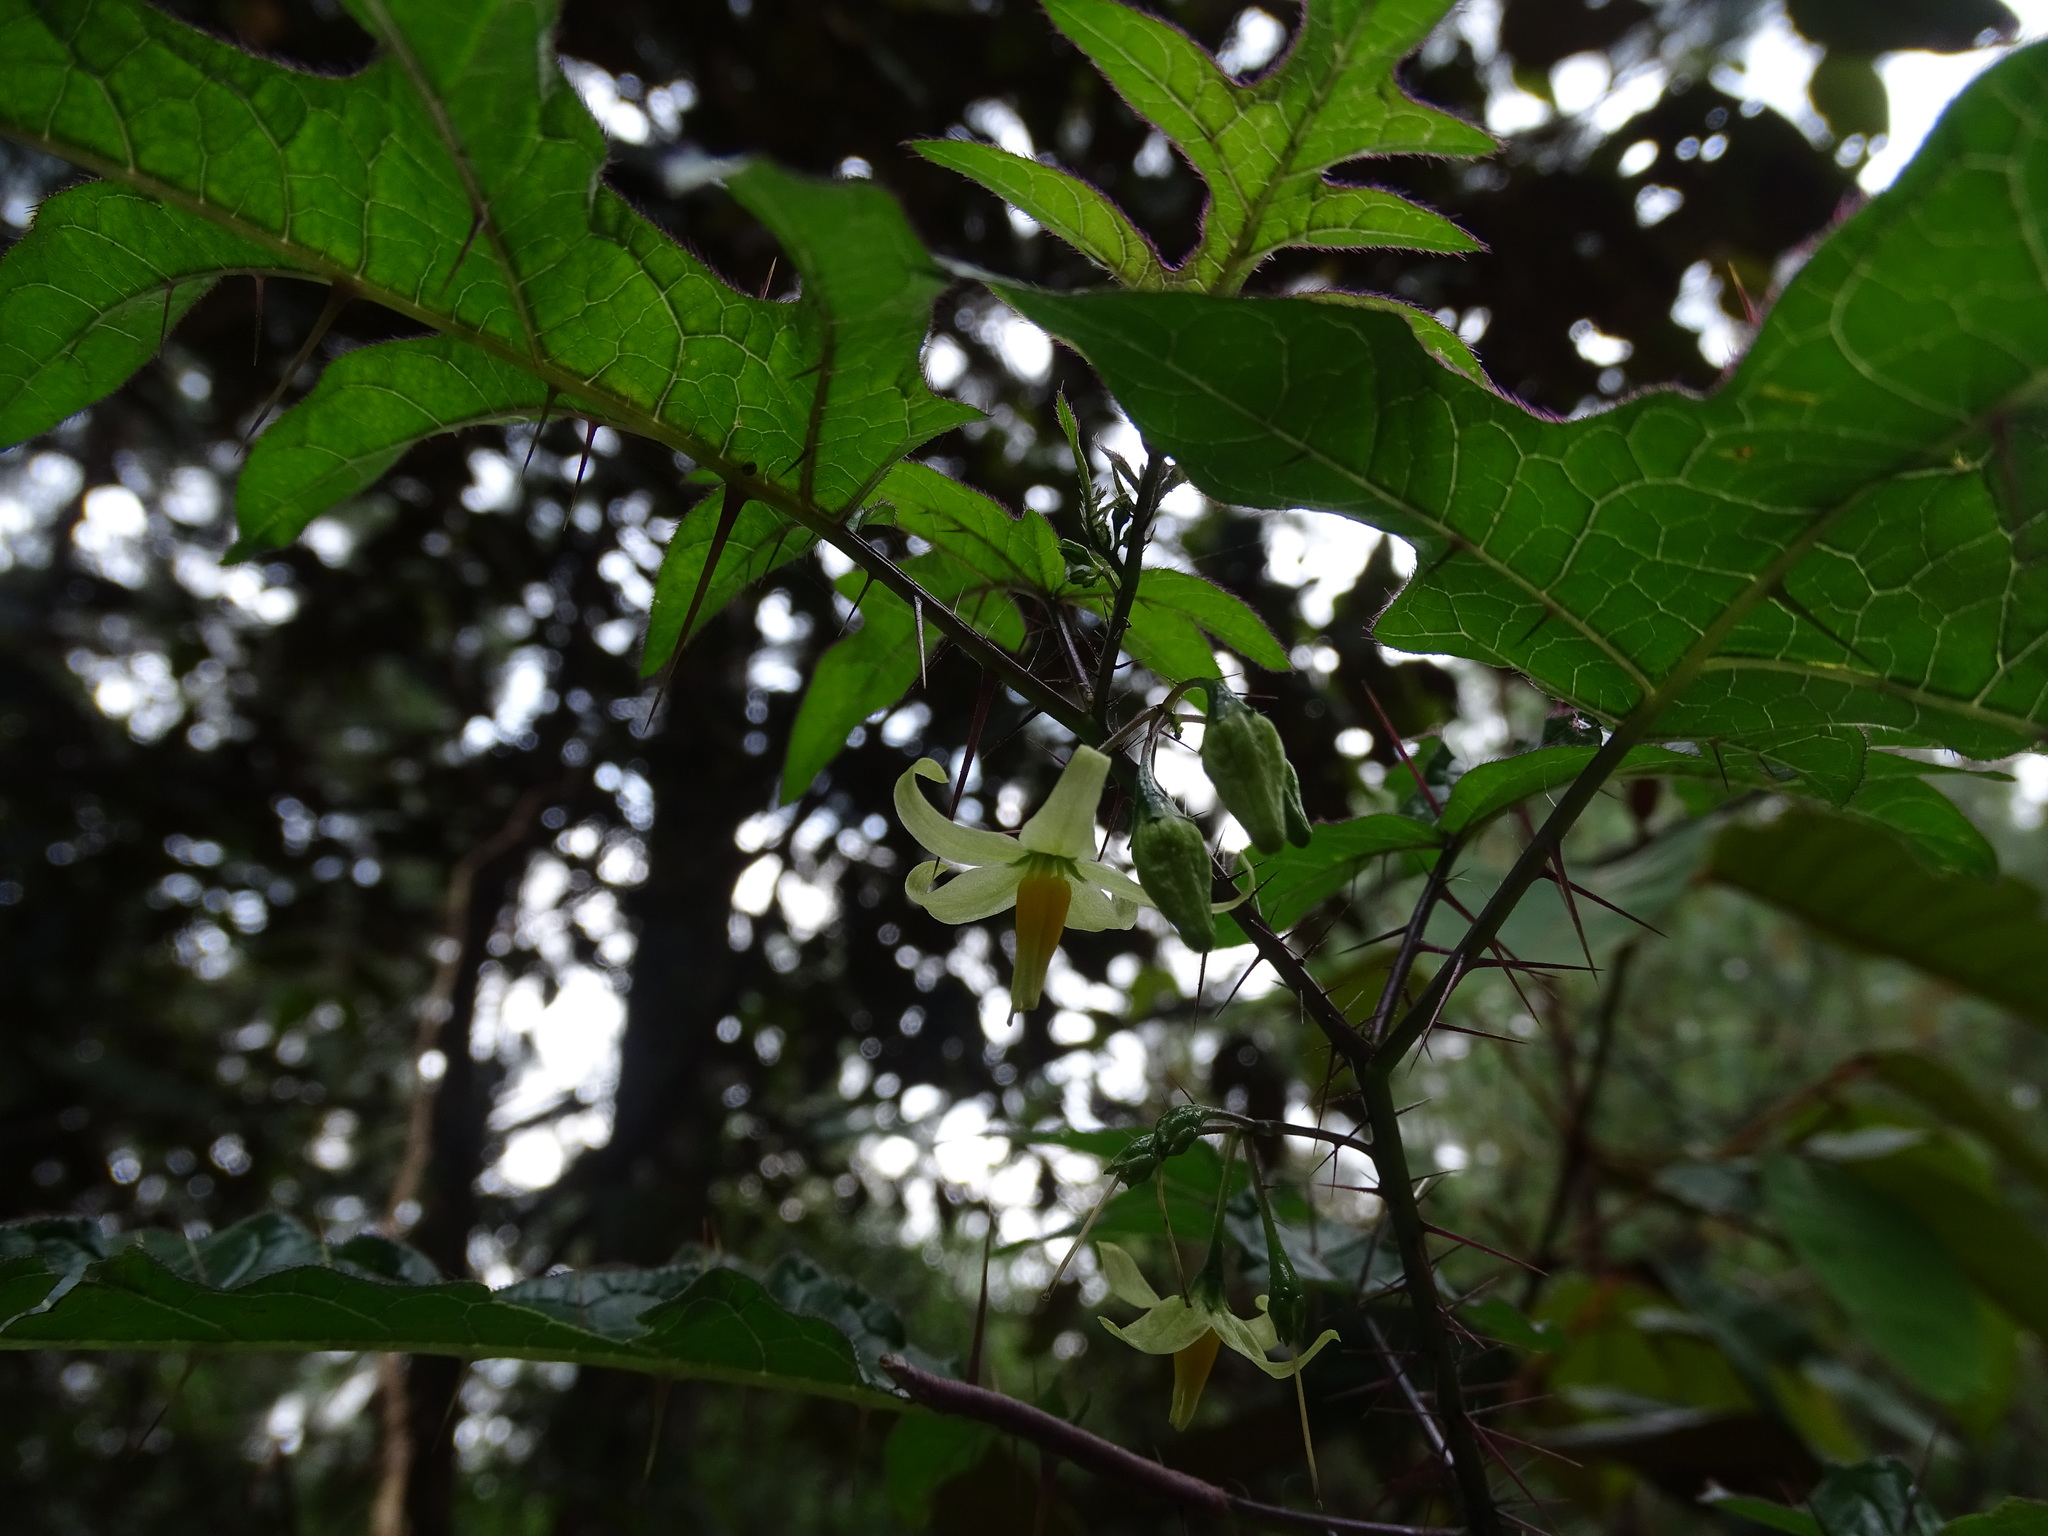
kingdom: Plantae
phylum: Tracheophyta
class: Magnoliopsida
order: Solanales
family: Solanaceae
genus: Solanum
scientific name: Solanum atropurpureum
